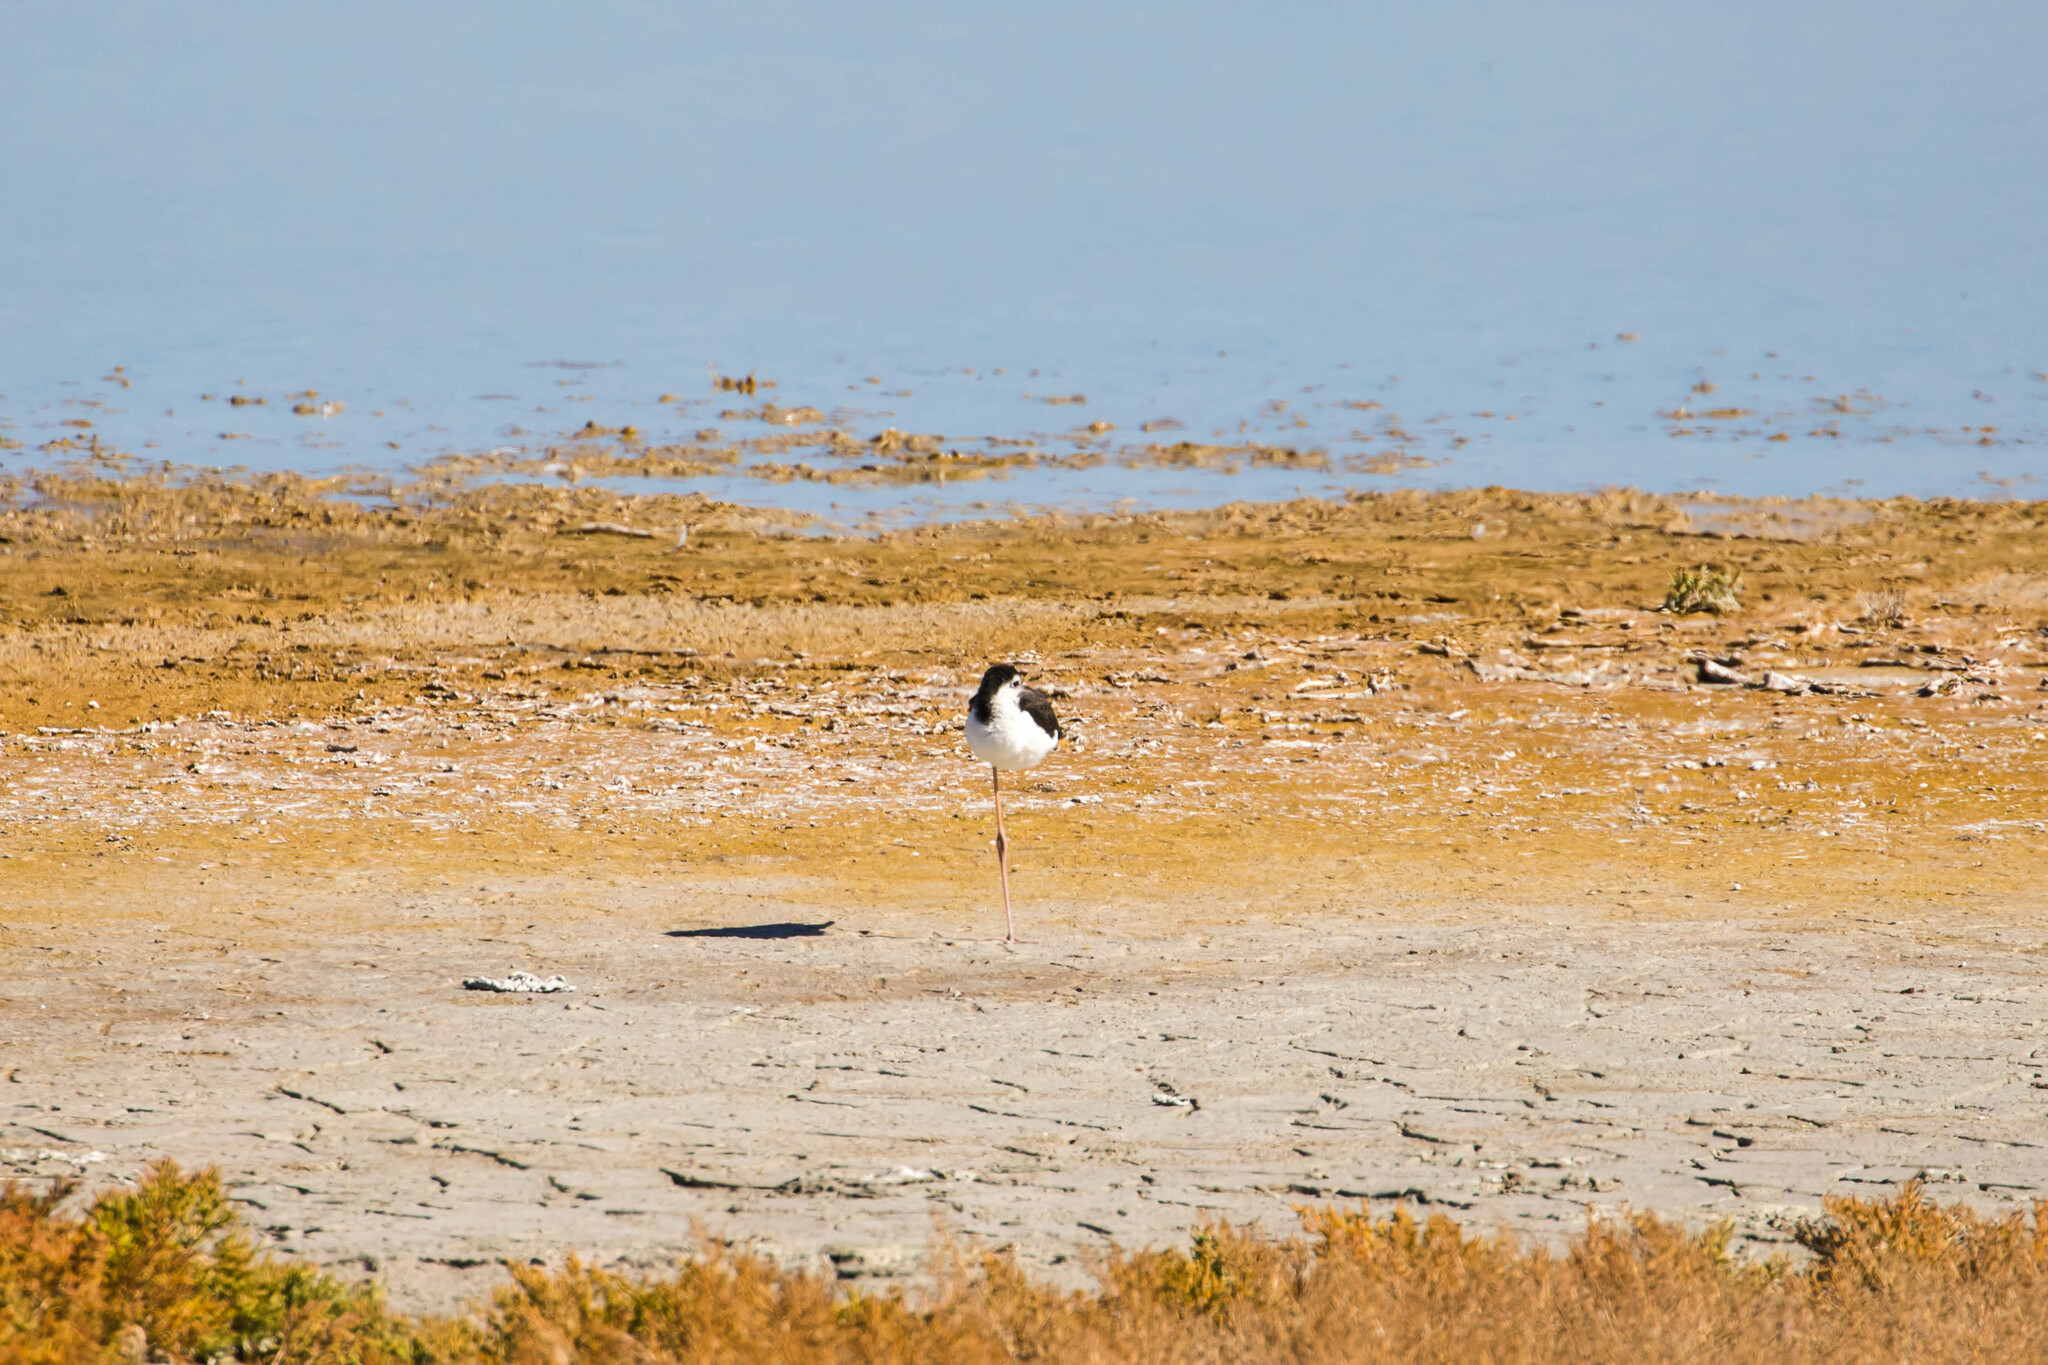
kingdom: Animalia
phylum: Chordata
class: Aves
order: Charadriiformes
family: Recurvirostridae
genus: Himantopus
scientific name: Himantopus mexicanus
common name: Black-necked stilt
